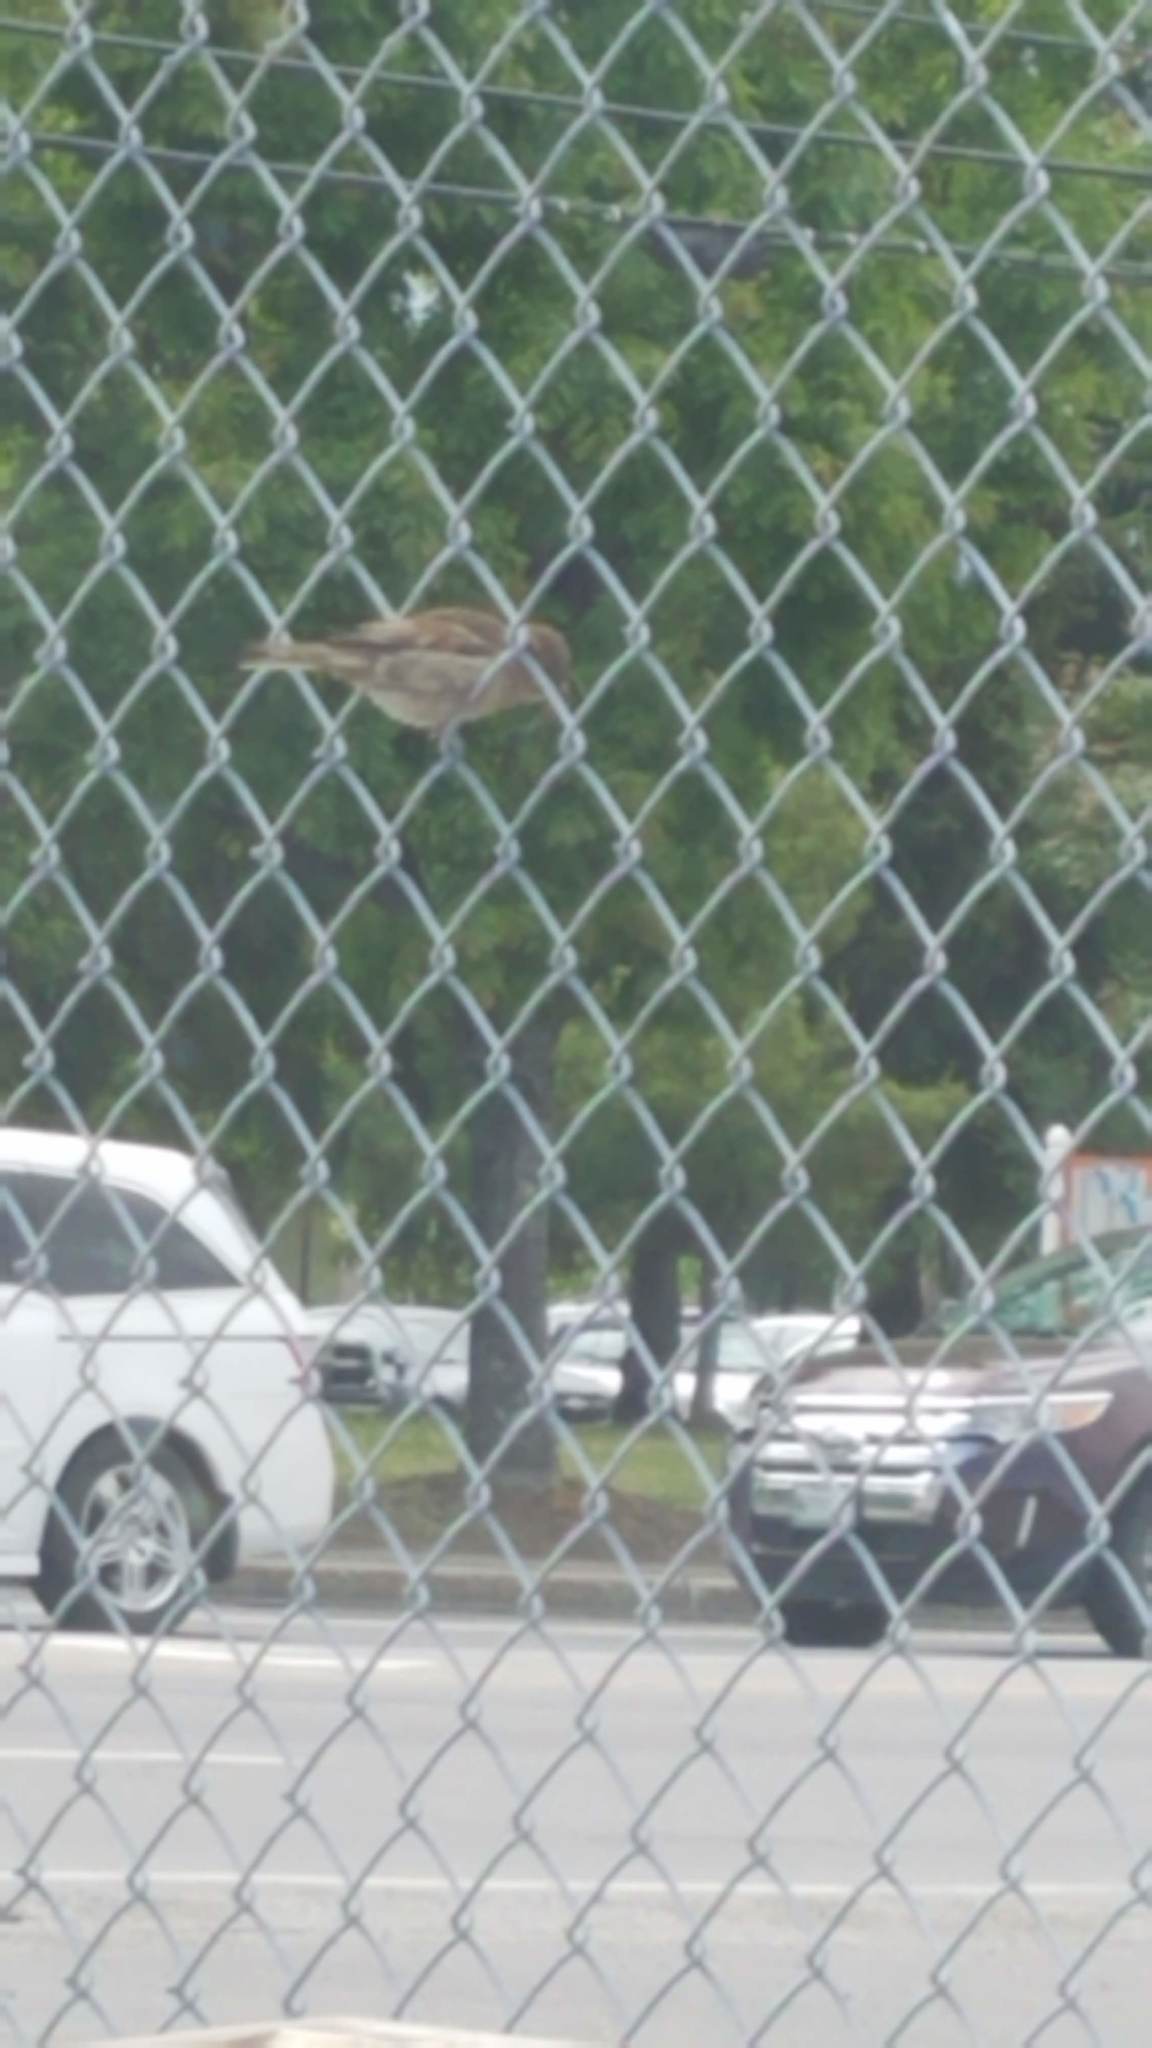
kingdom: Animalia
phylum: Chordata
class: Aves
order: Passeriformes
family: Passeridae
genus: Passer
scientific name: Passer domesticus
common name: House sparrow
